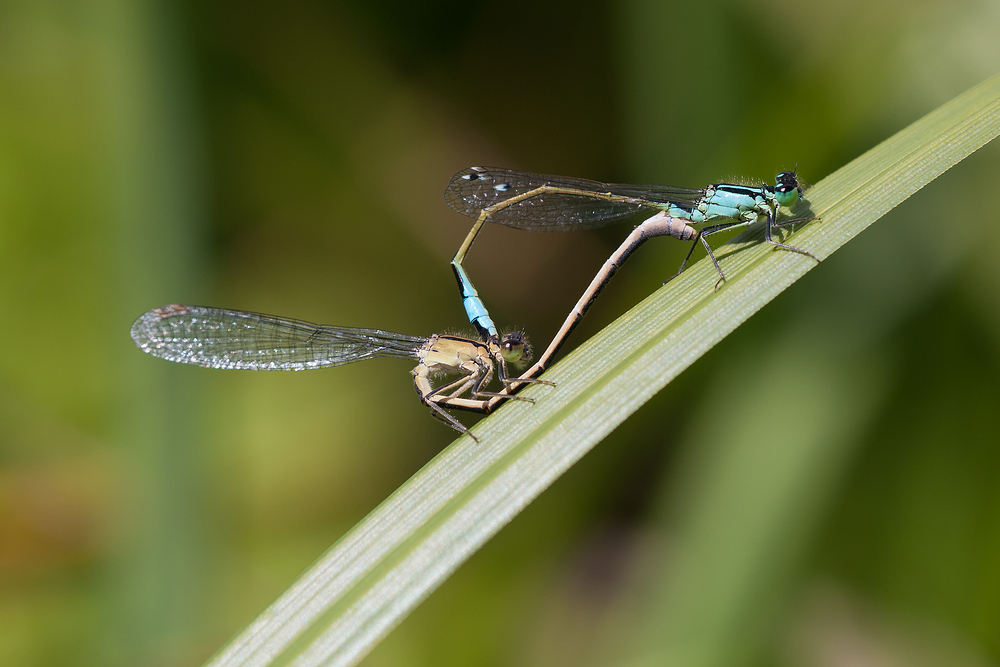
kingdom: Animalia
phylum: Arthropoda
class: Insecta
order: Odonata
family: Coenagrionidae
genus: Ischnura
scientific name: Ischnura elegans
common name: Blue-tailed damselfly
